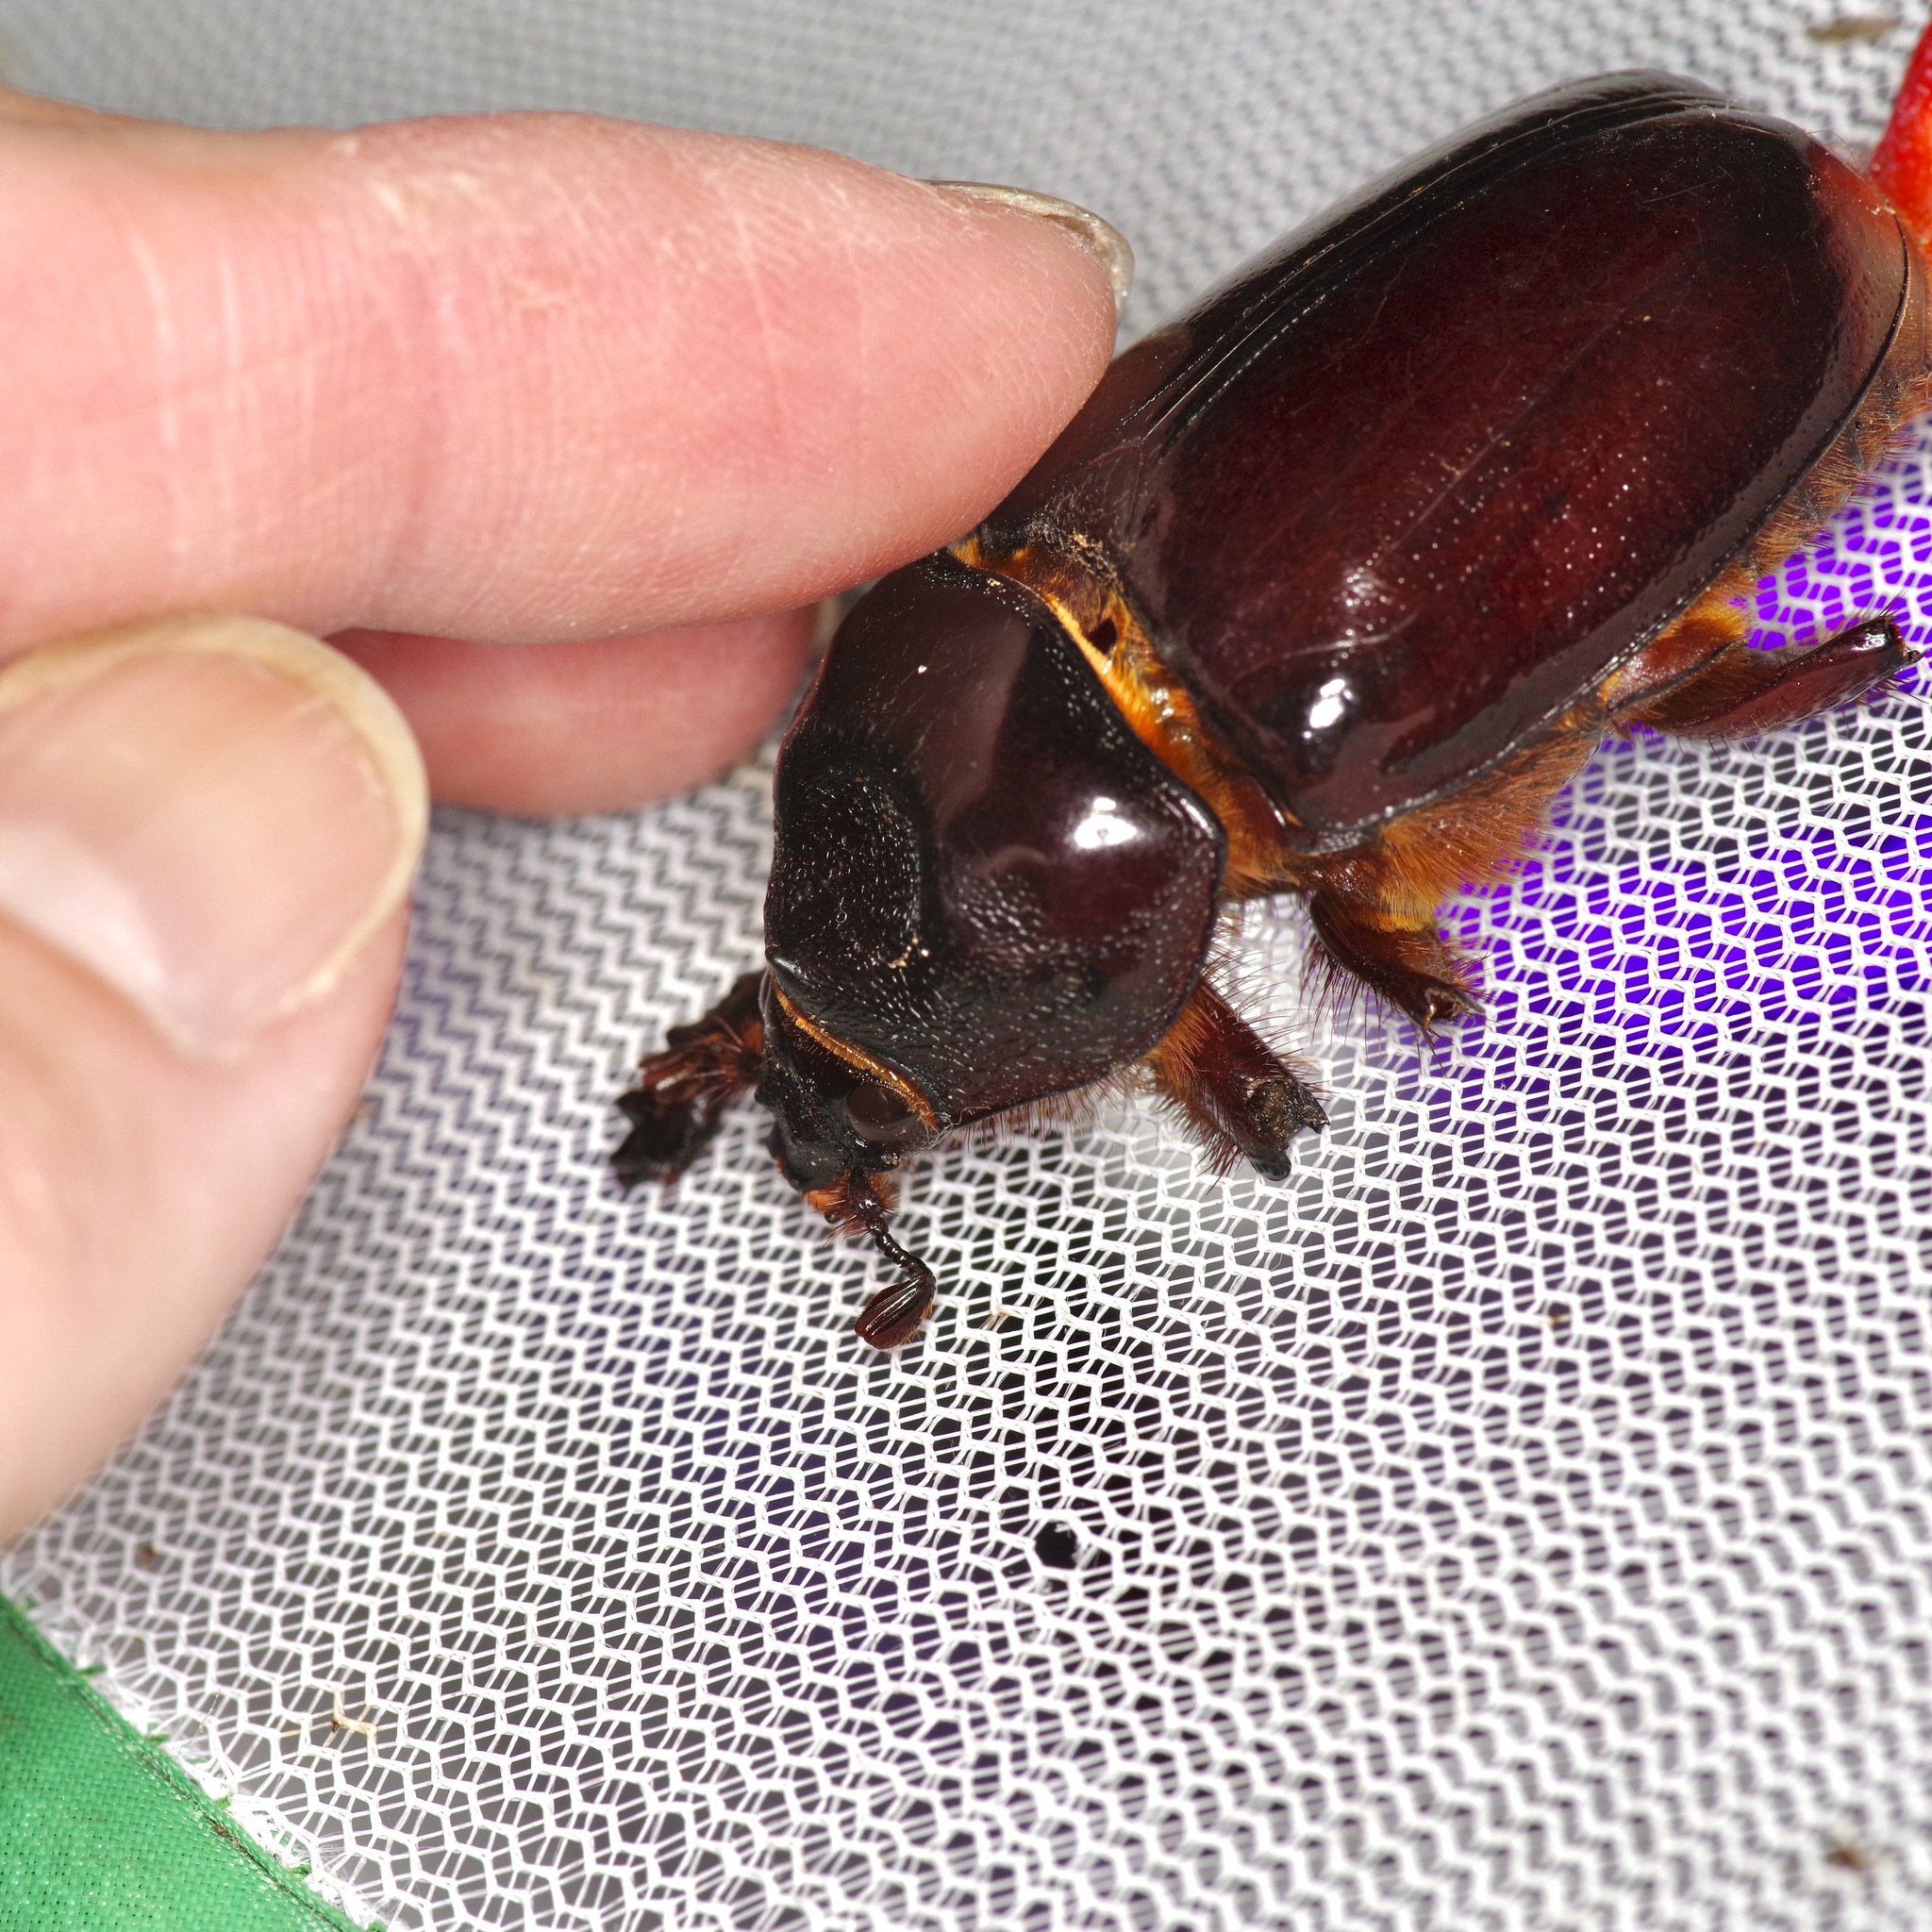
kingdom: Animalia
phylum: Arthropoda
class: Insecta
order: Coleoptera
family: Scarabaeidae
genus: Strategus
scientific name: Strategus aloeus
